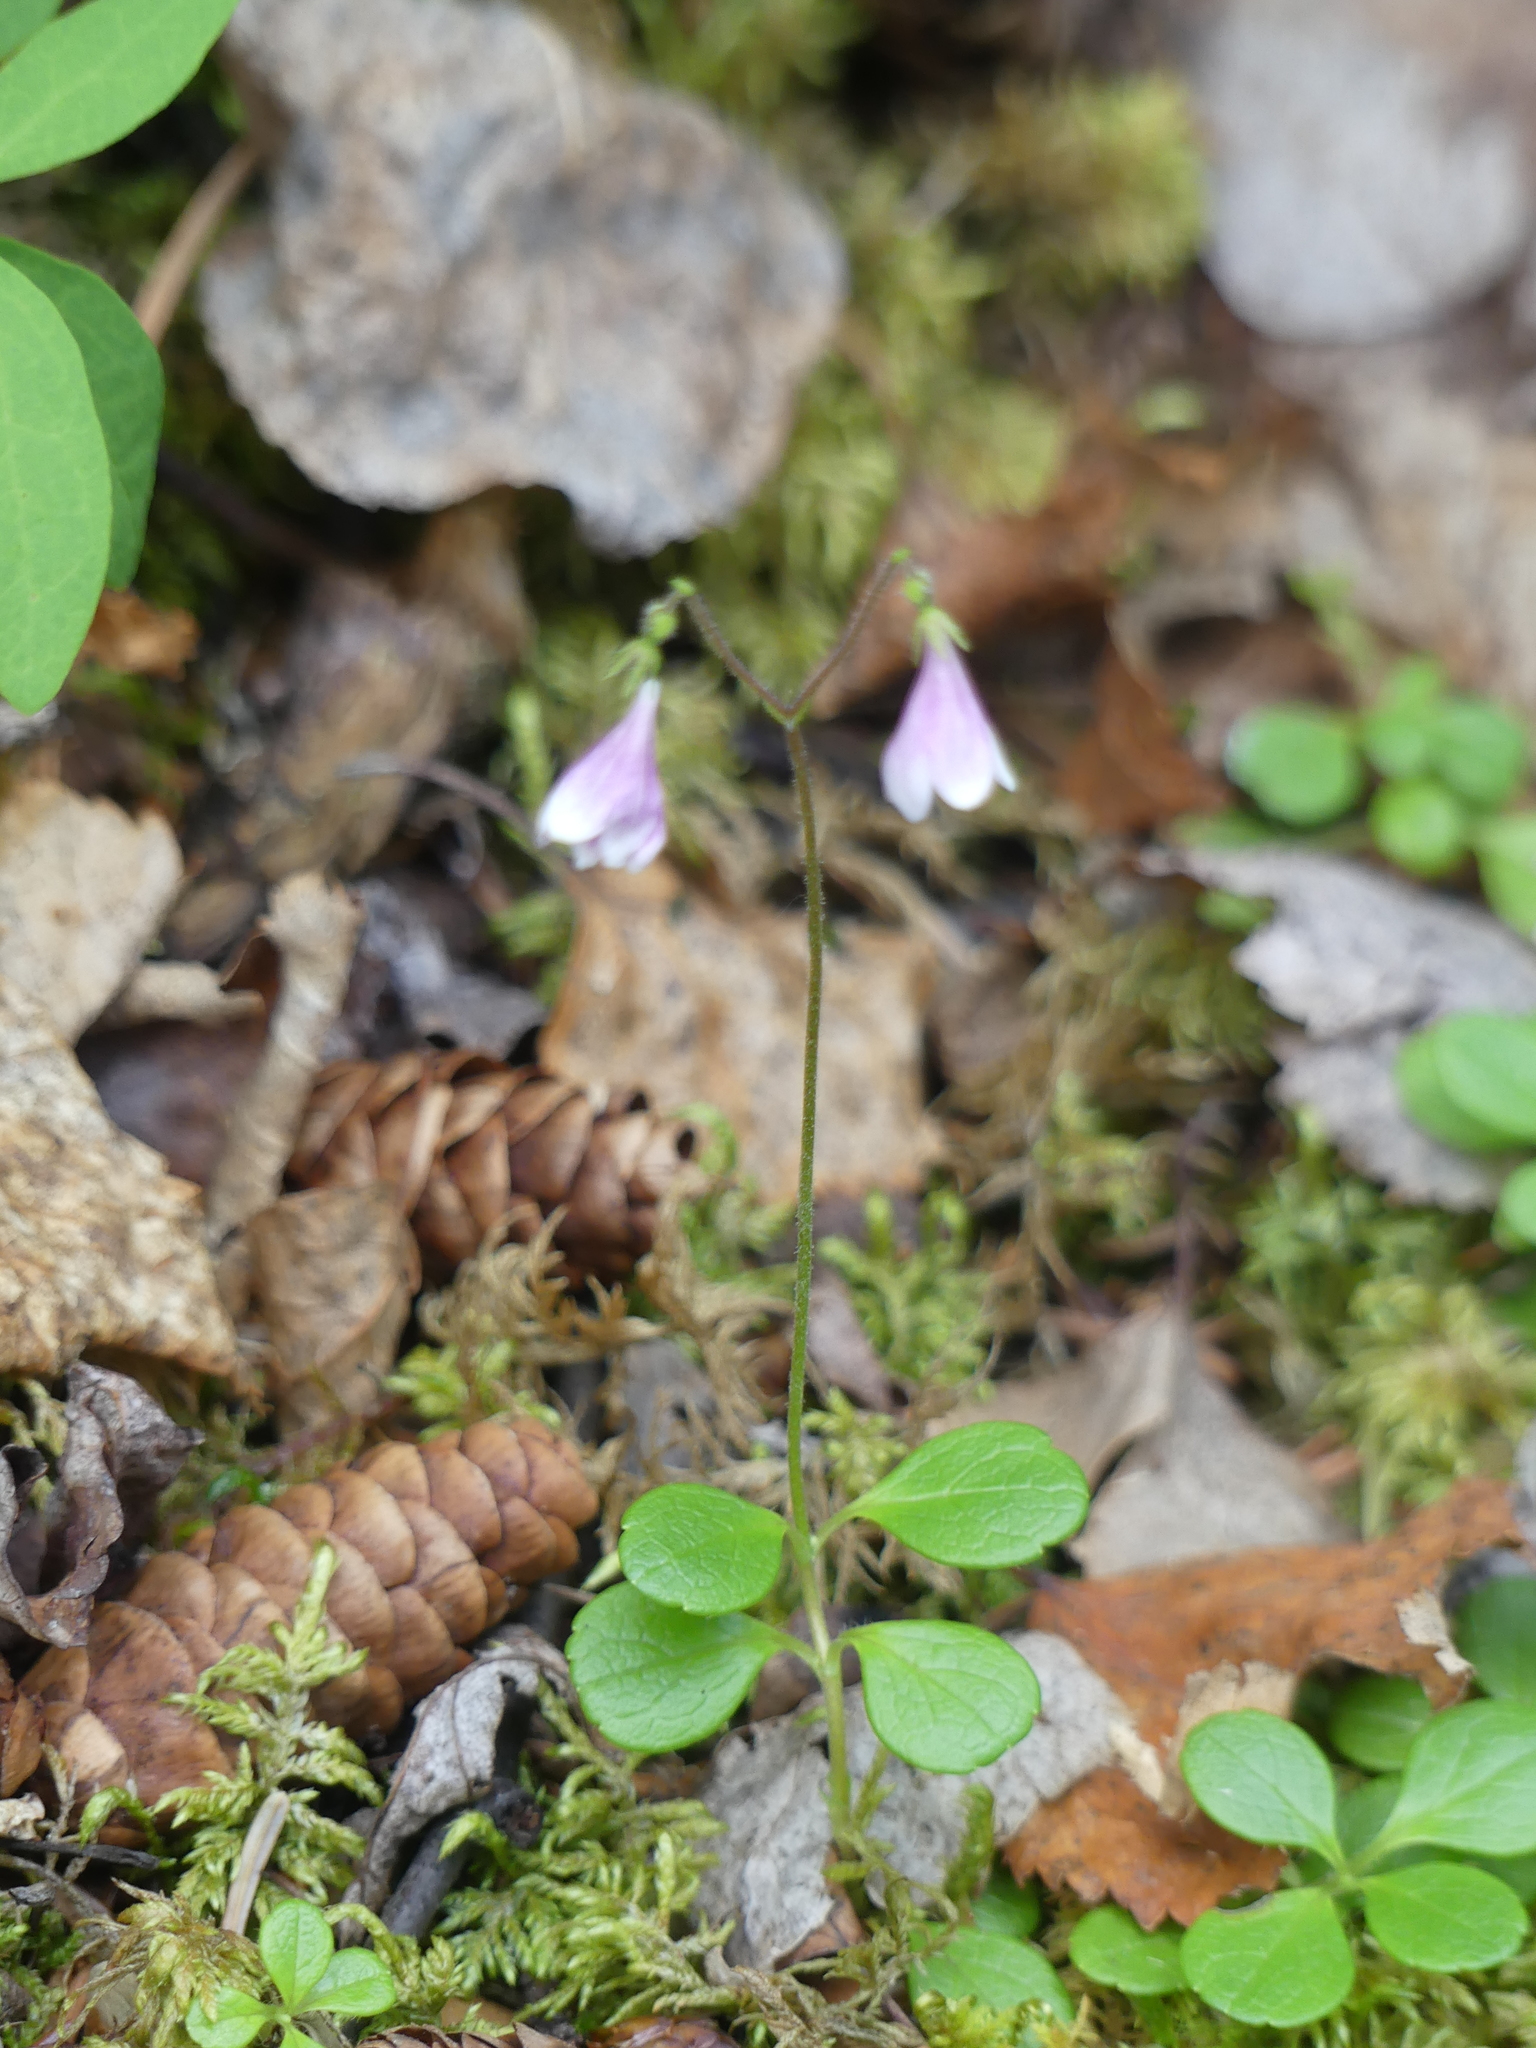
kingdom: Plantae
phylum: Tracheophyta
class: Magnoliopsida
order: Dipsacales
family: Caprifoliaceae
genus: Linnaea
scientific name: Linnaea borealis
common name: Twinflower
